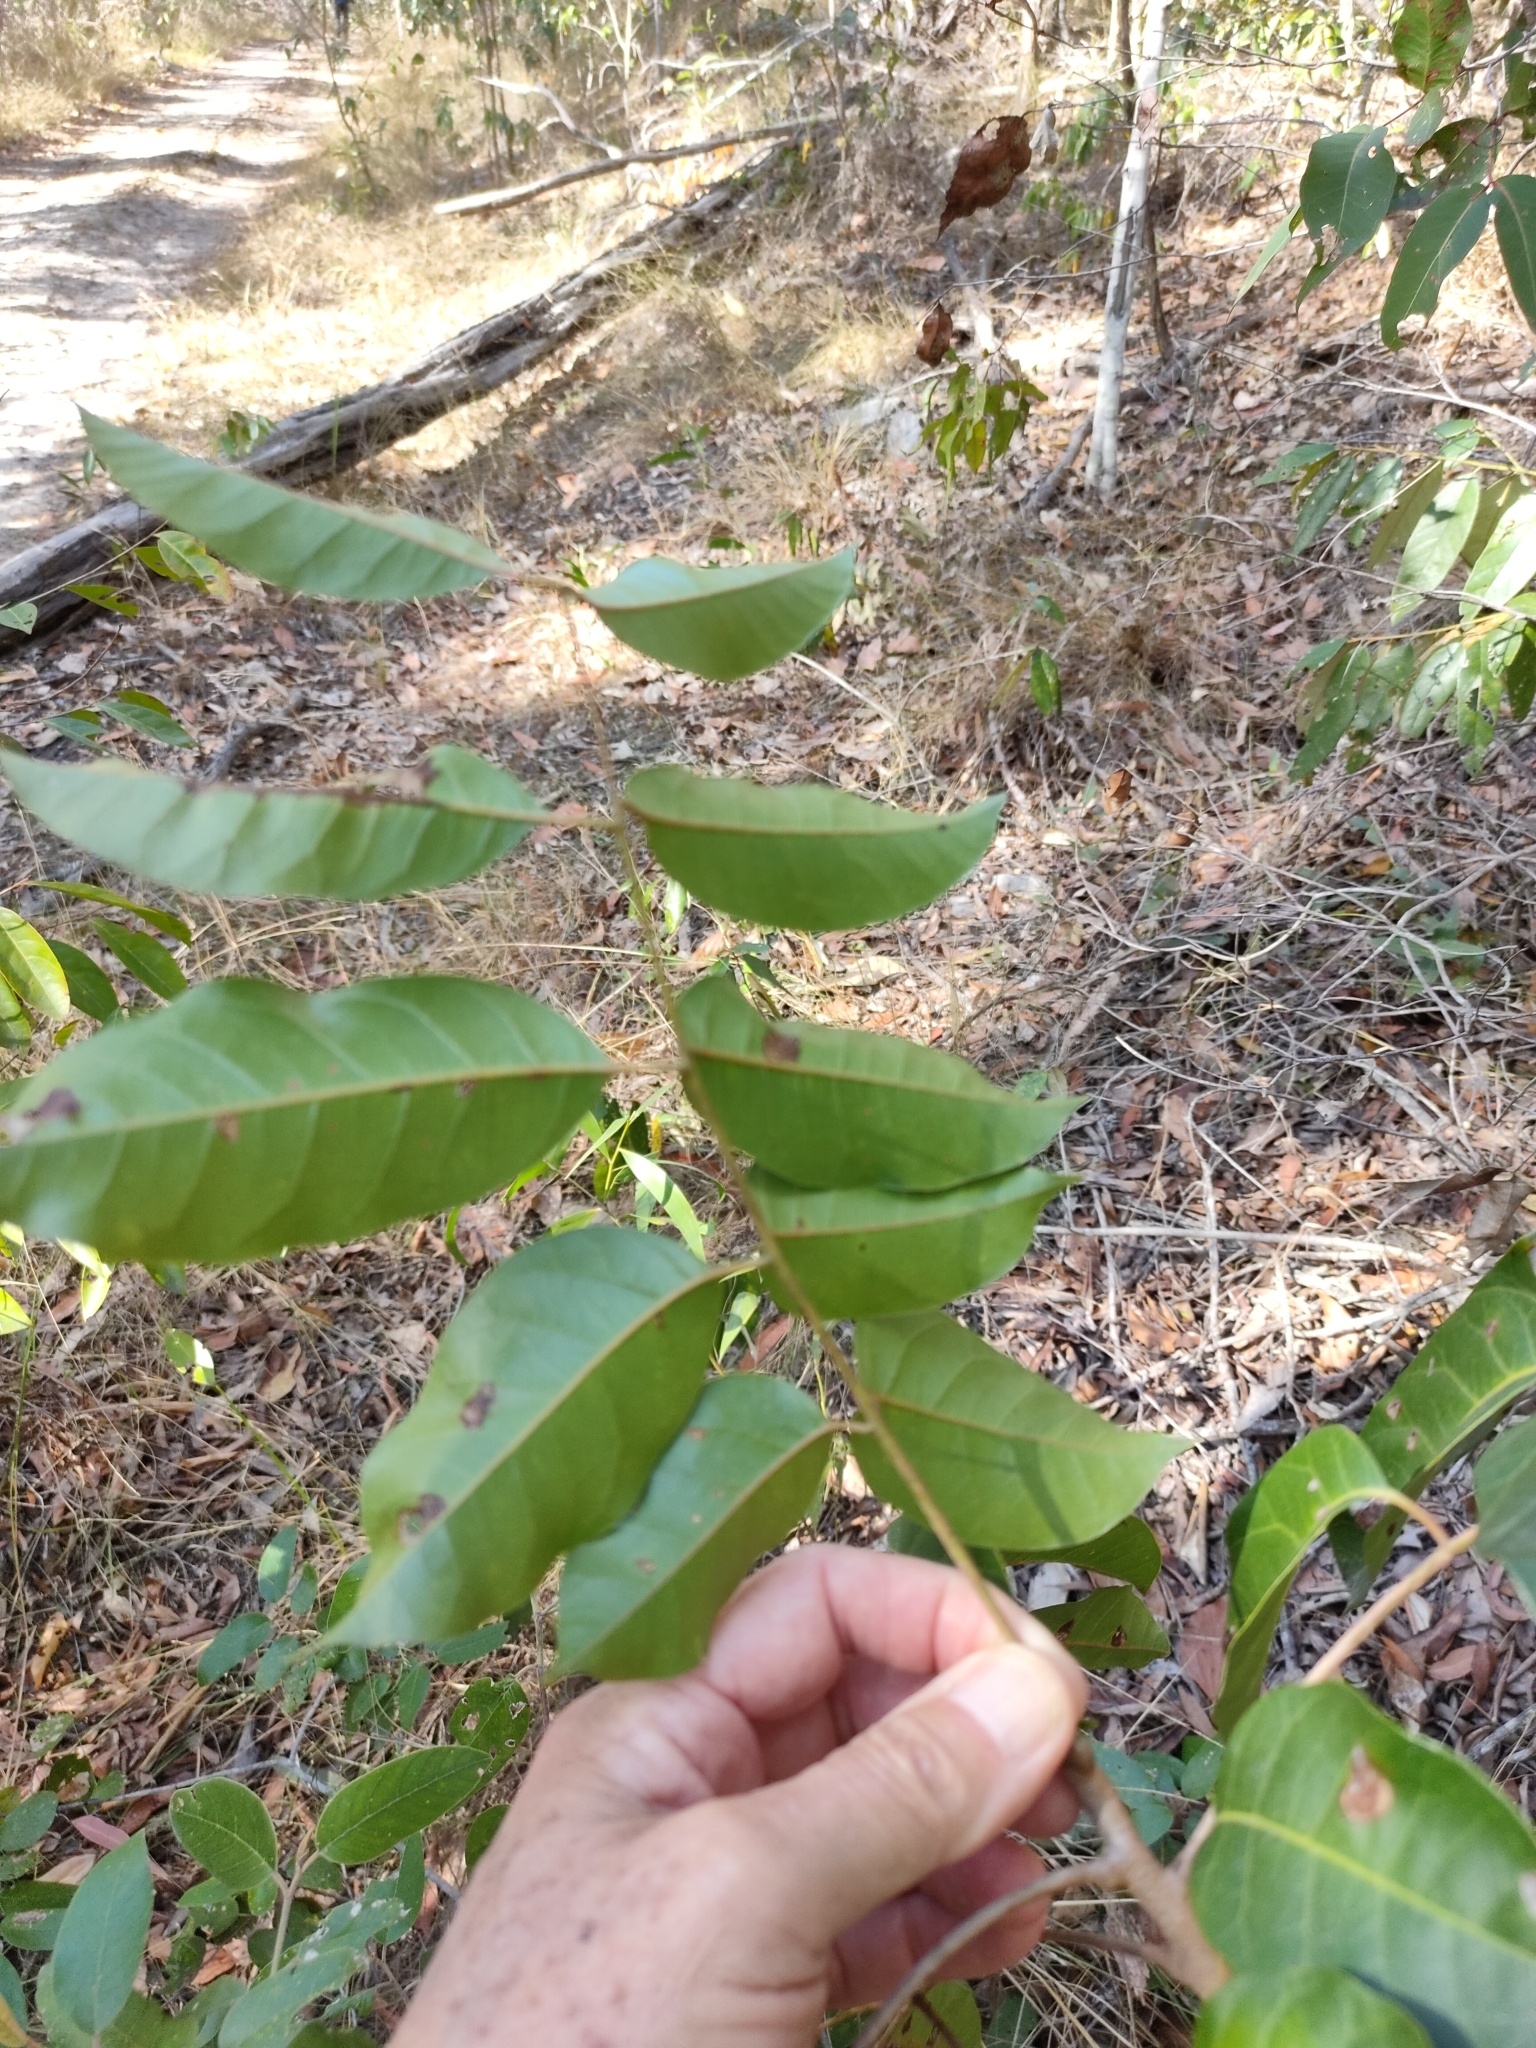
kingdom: Plantae
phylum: Tracheophyta
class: Magnoliopsida
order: Sapindales
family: Anacardiaceae
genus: Euroschinus
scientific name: Euroschinus falcatus
